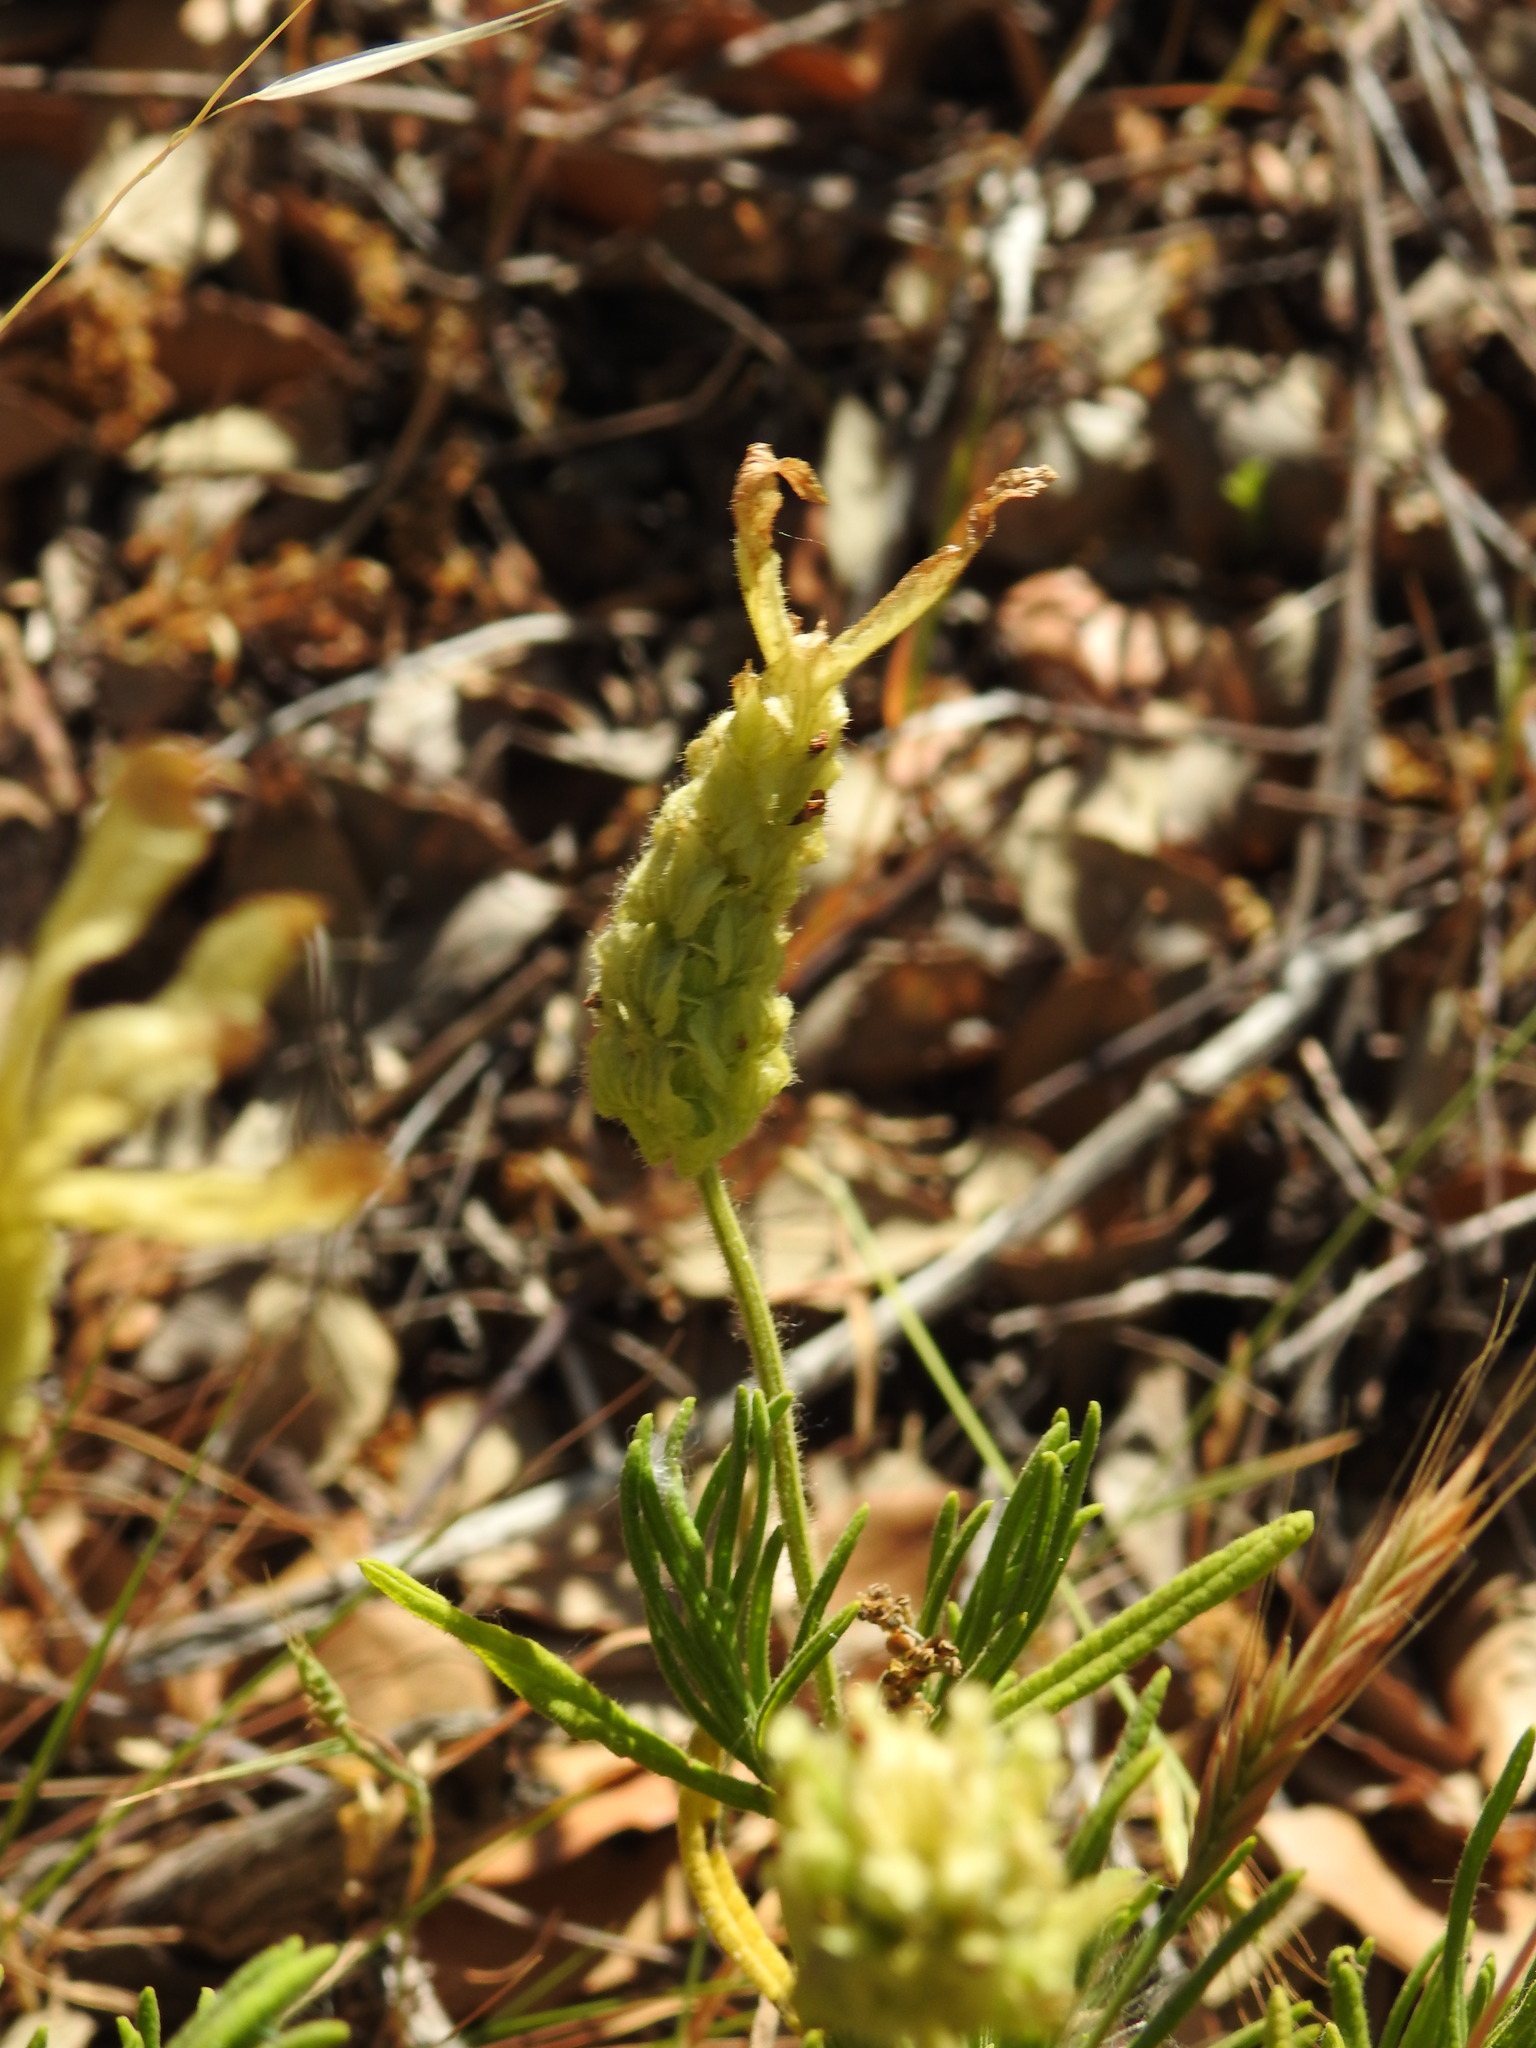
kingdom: Plantae
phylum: Tracheophyta
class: Magnoliopsida
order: Lamiales
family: Lamiaceae
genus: Lavandula
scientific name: Lavandula viridis
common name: Green spanish lavender
